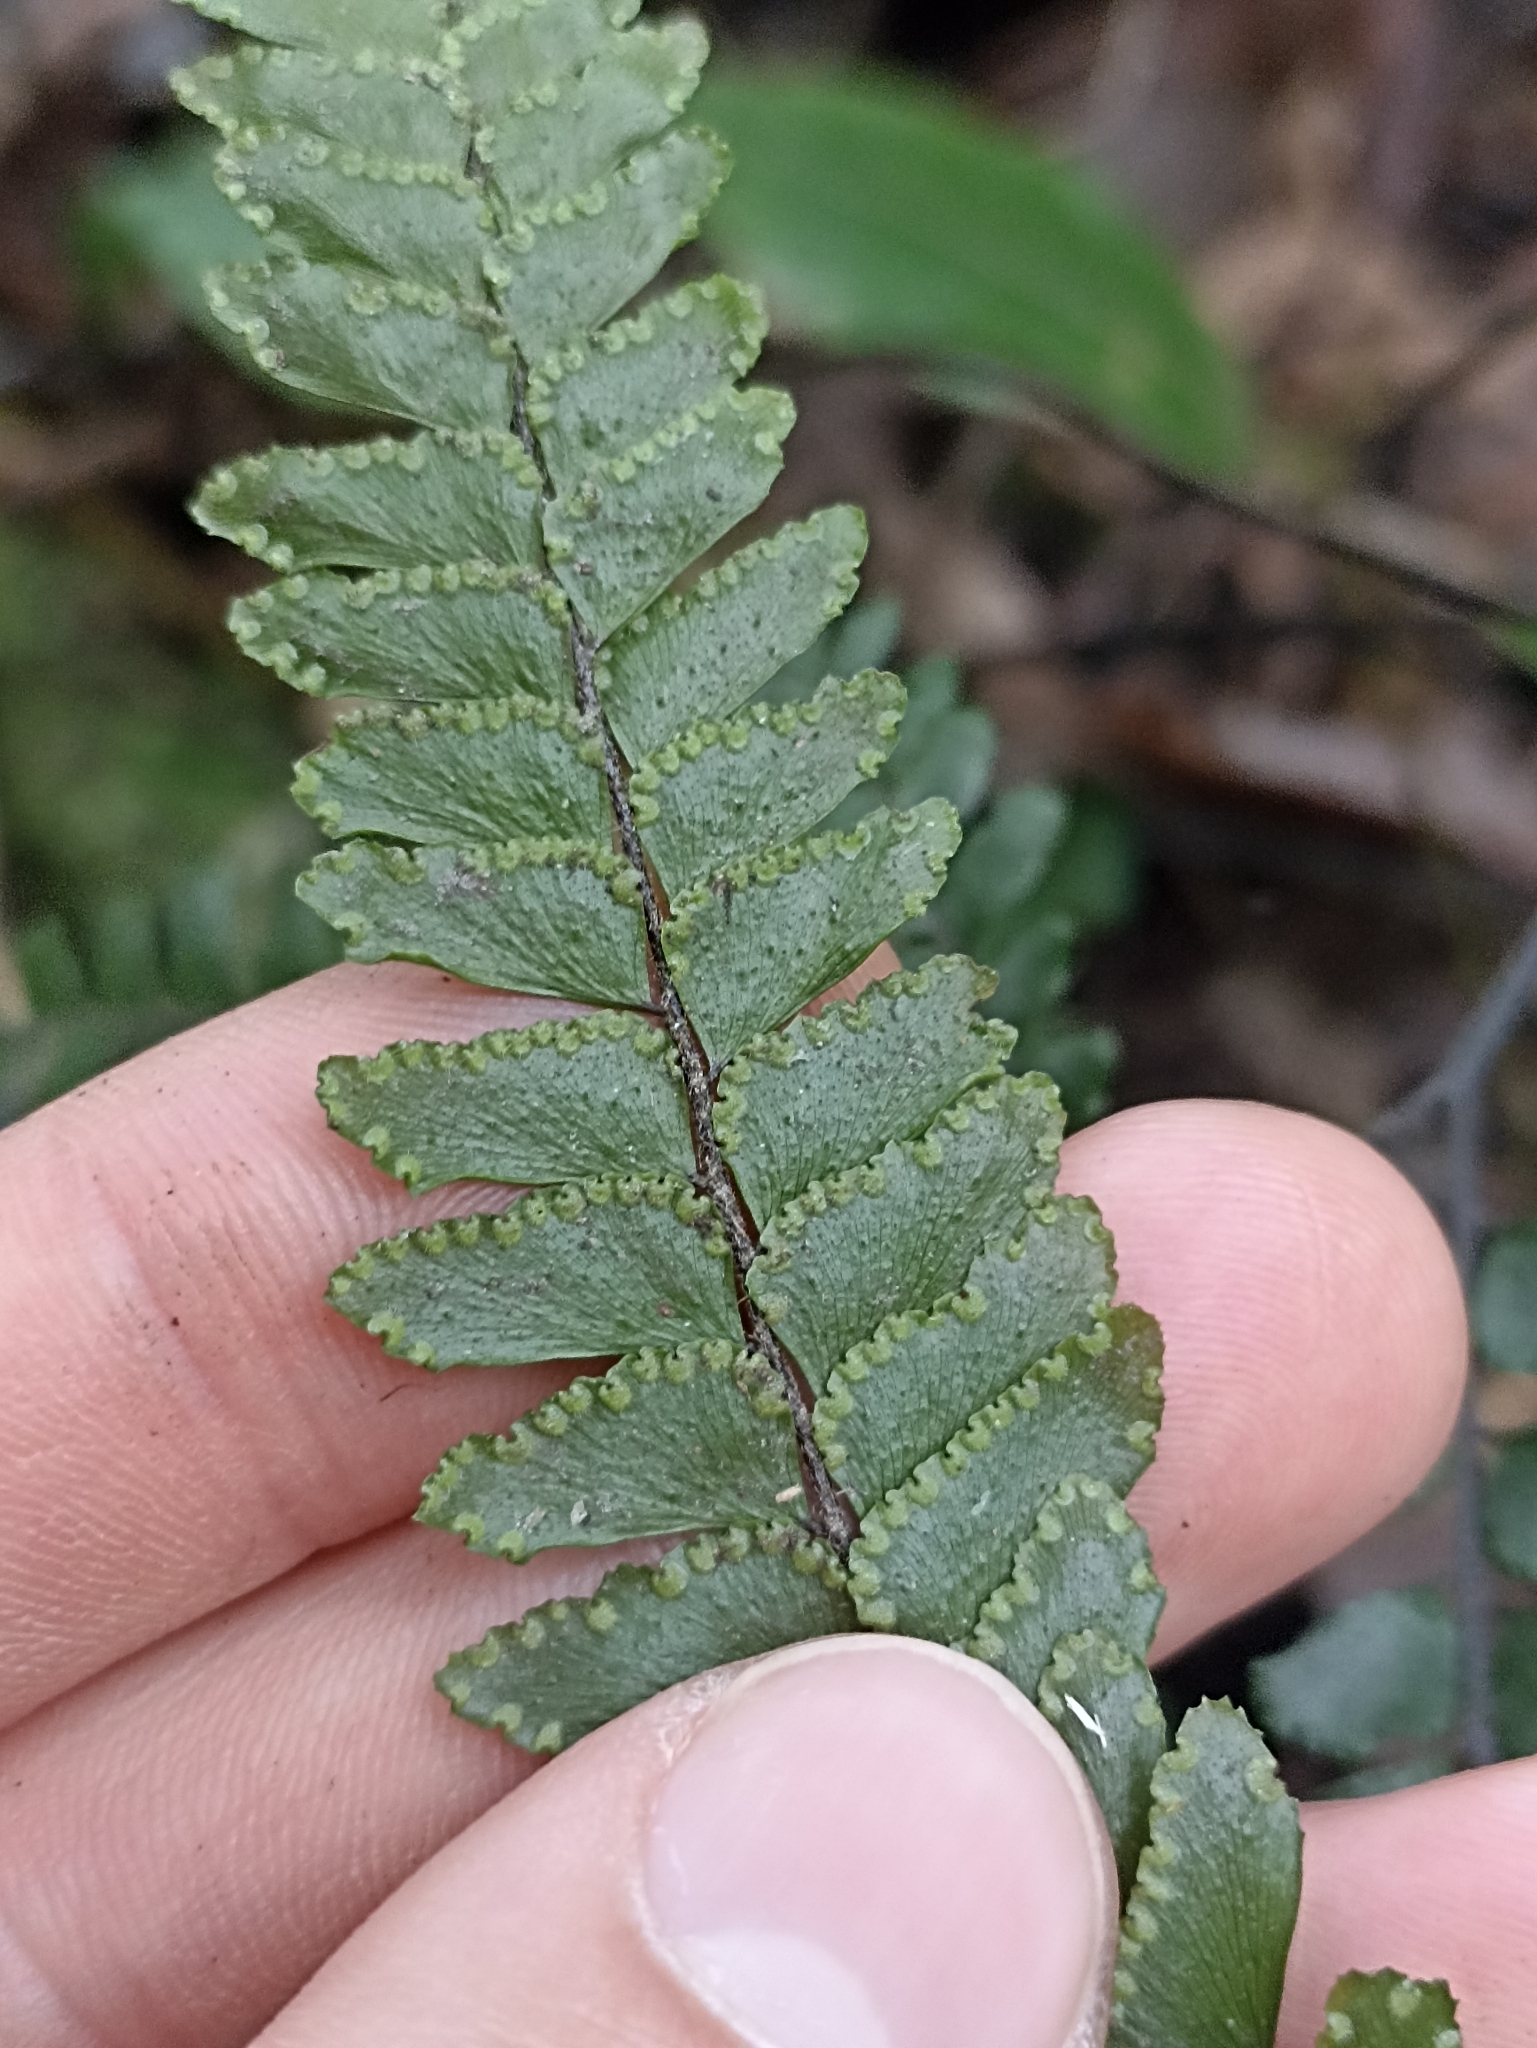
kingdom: Plantae
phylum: Tracheophyta
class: Polypodiopsida
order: Polypodiales
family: Pteridaceae
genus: Adiantum
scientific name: Adiantum hispidulum
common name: Rough maidenhair
